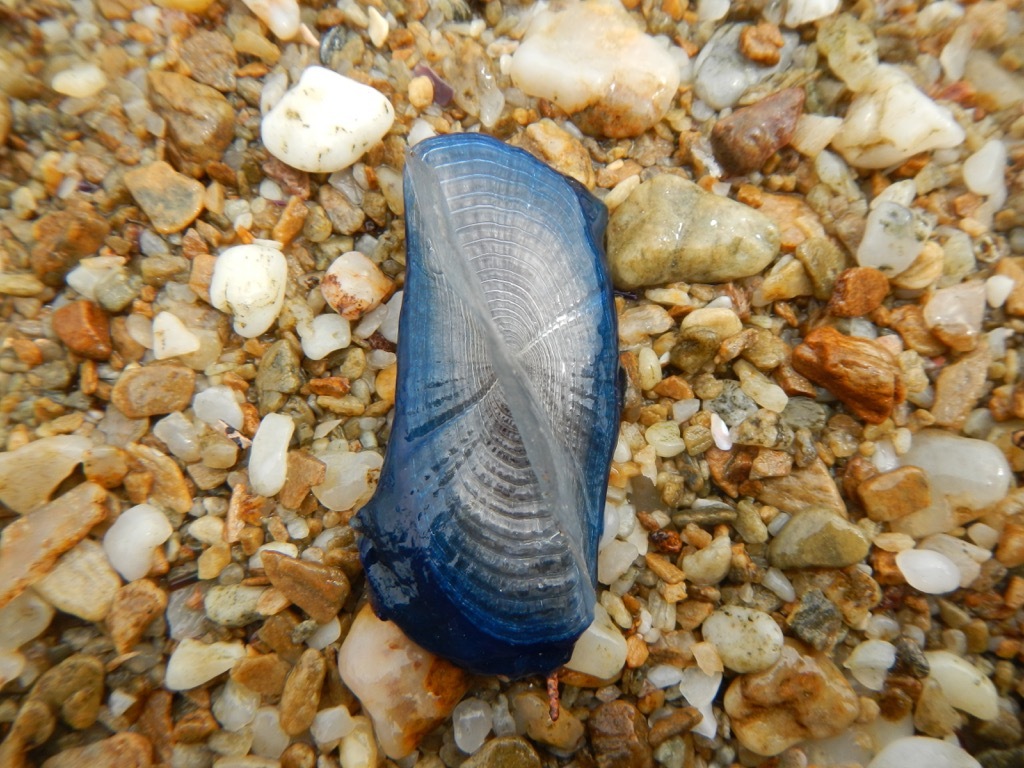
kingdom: Animalia
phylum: Cnidaria
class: Hydrozoa
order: Anthoathecata
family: Porpitidae
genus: Velella
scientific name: Velella velella
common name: By-the-wind-sailor
